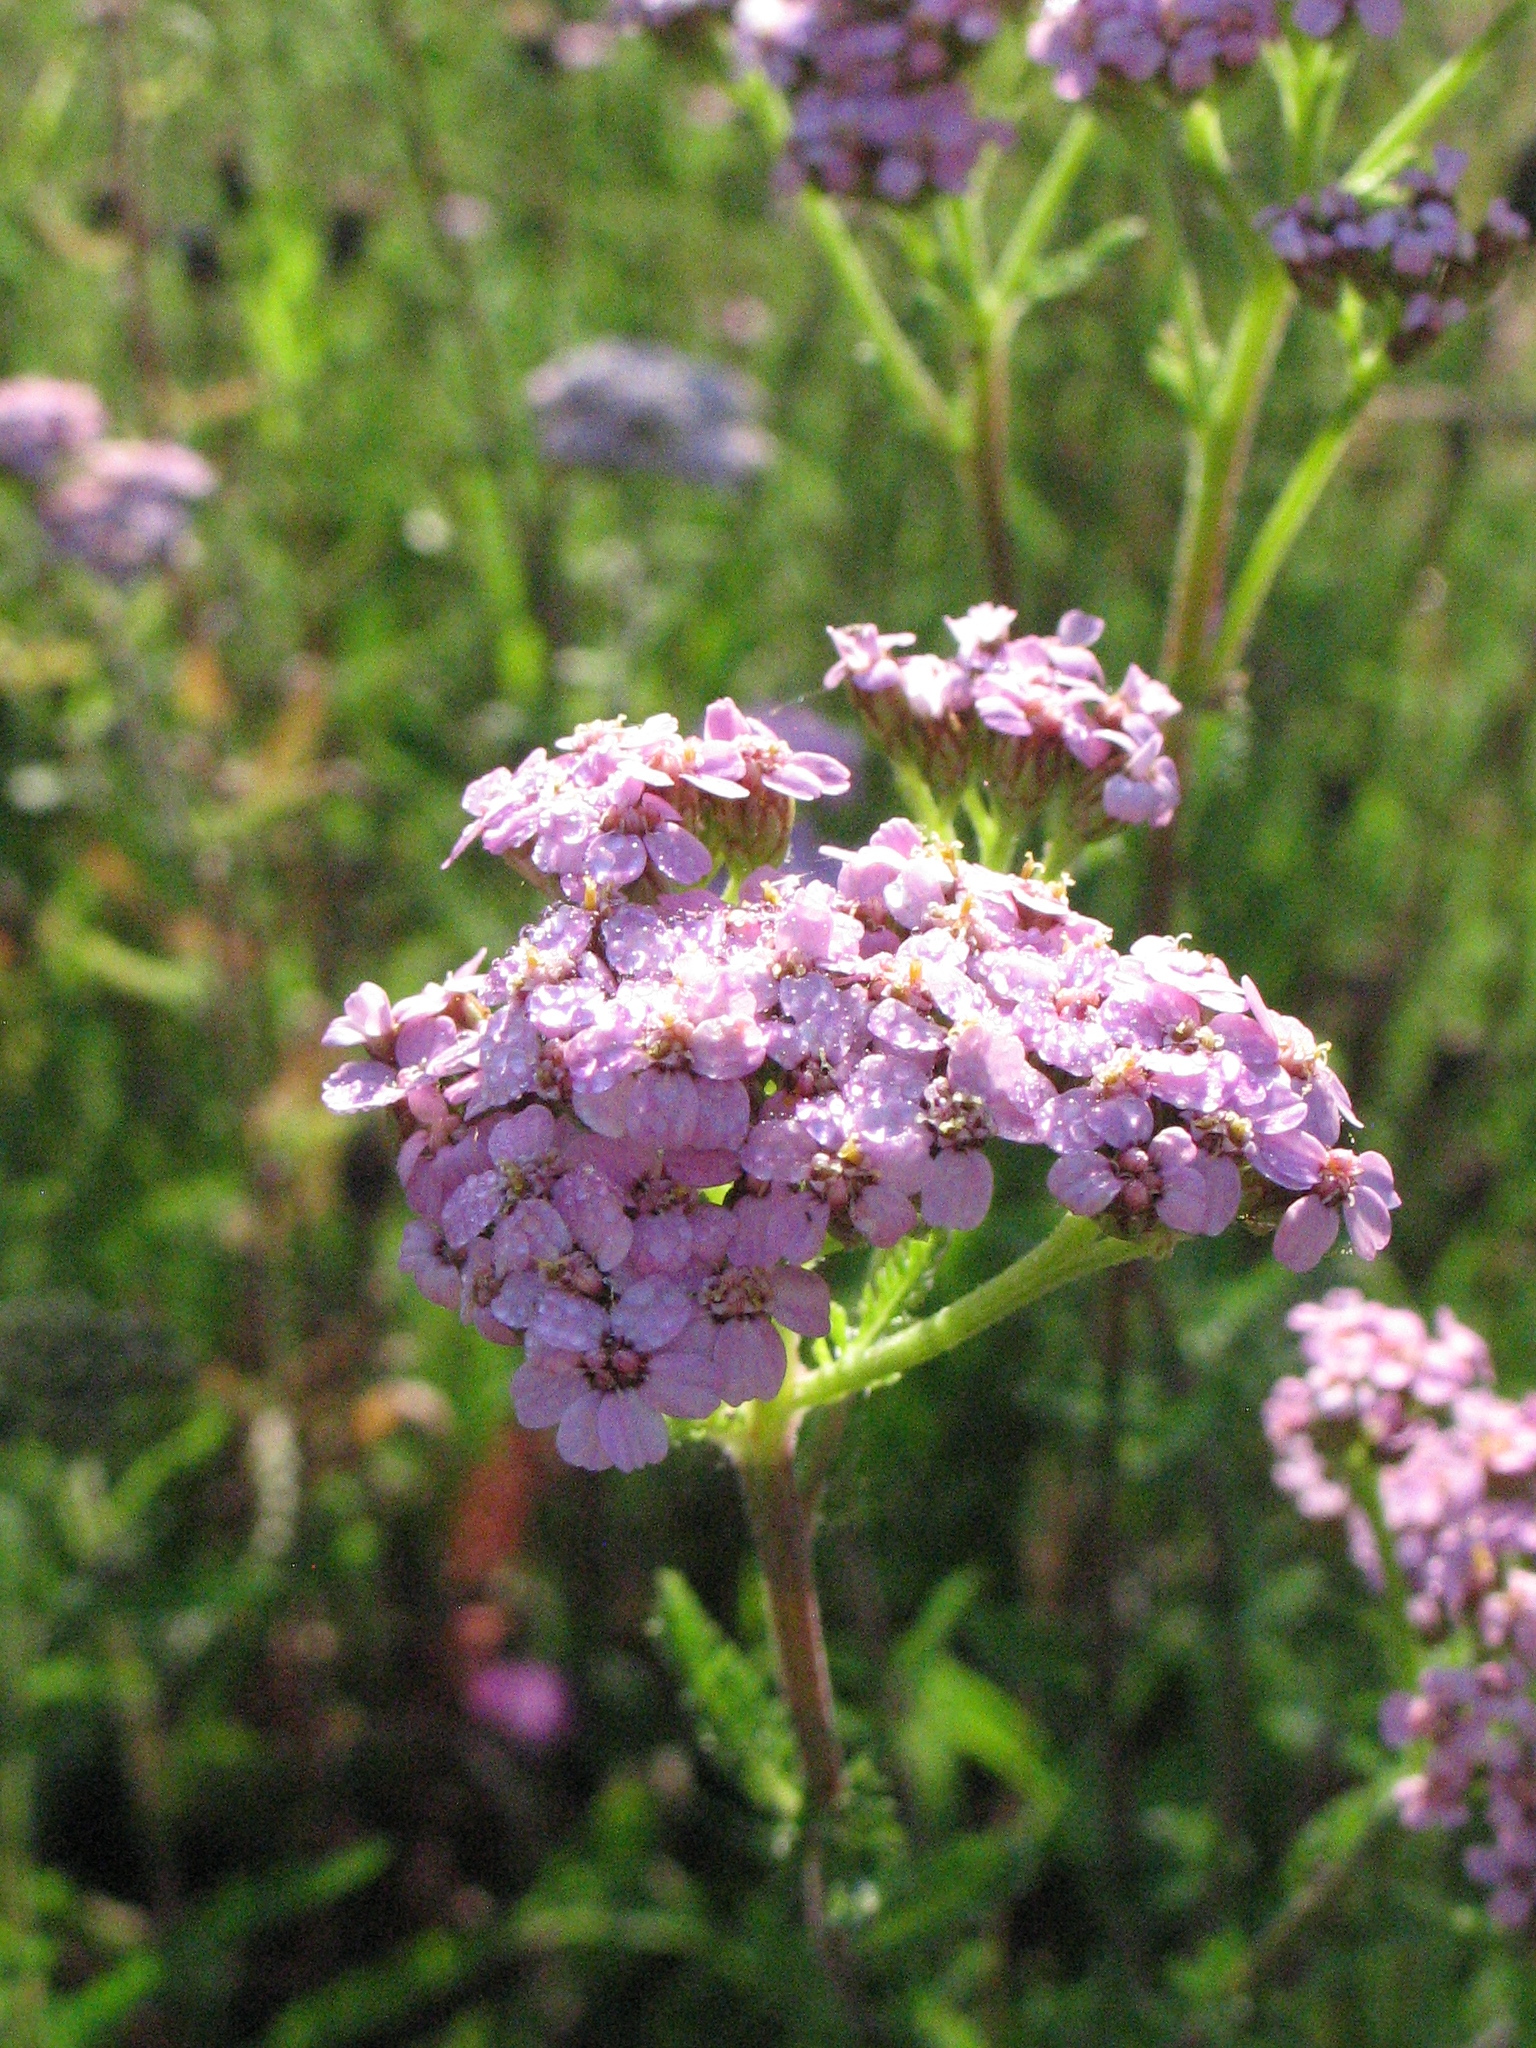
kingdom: Plantae
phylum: Tracheophyta
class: Magnoliopsida
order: Asterales
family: Asteraceae
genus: Achillea
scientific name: Achillea millefolium
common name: Yarrow
